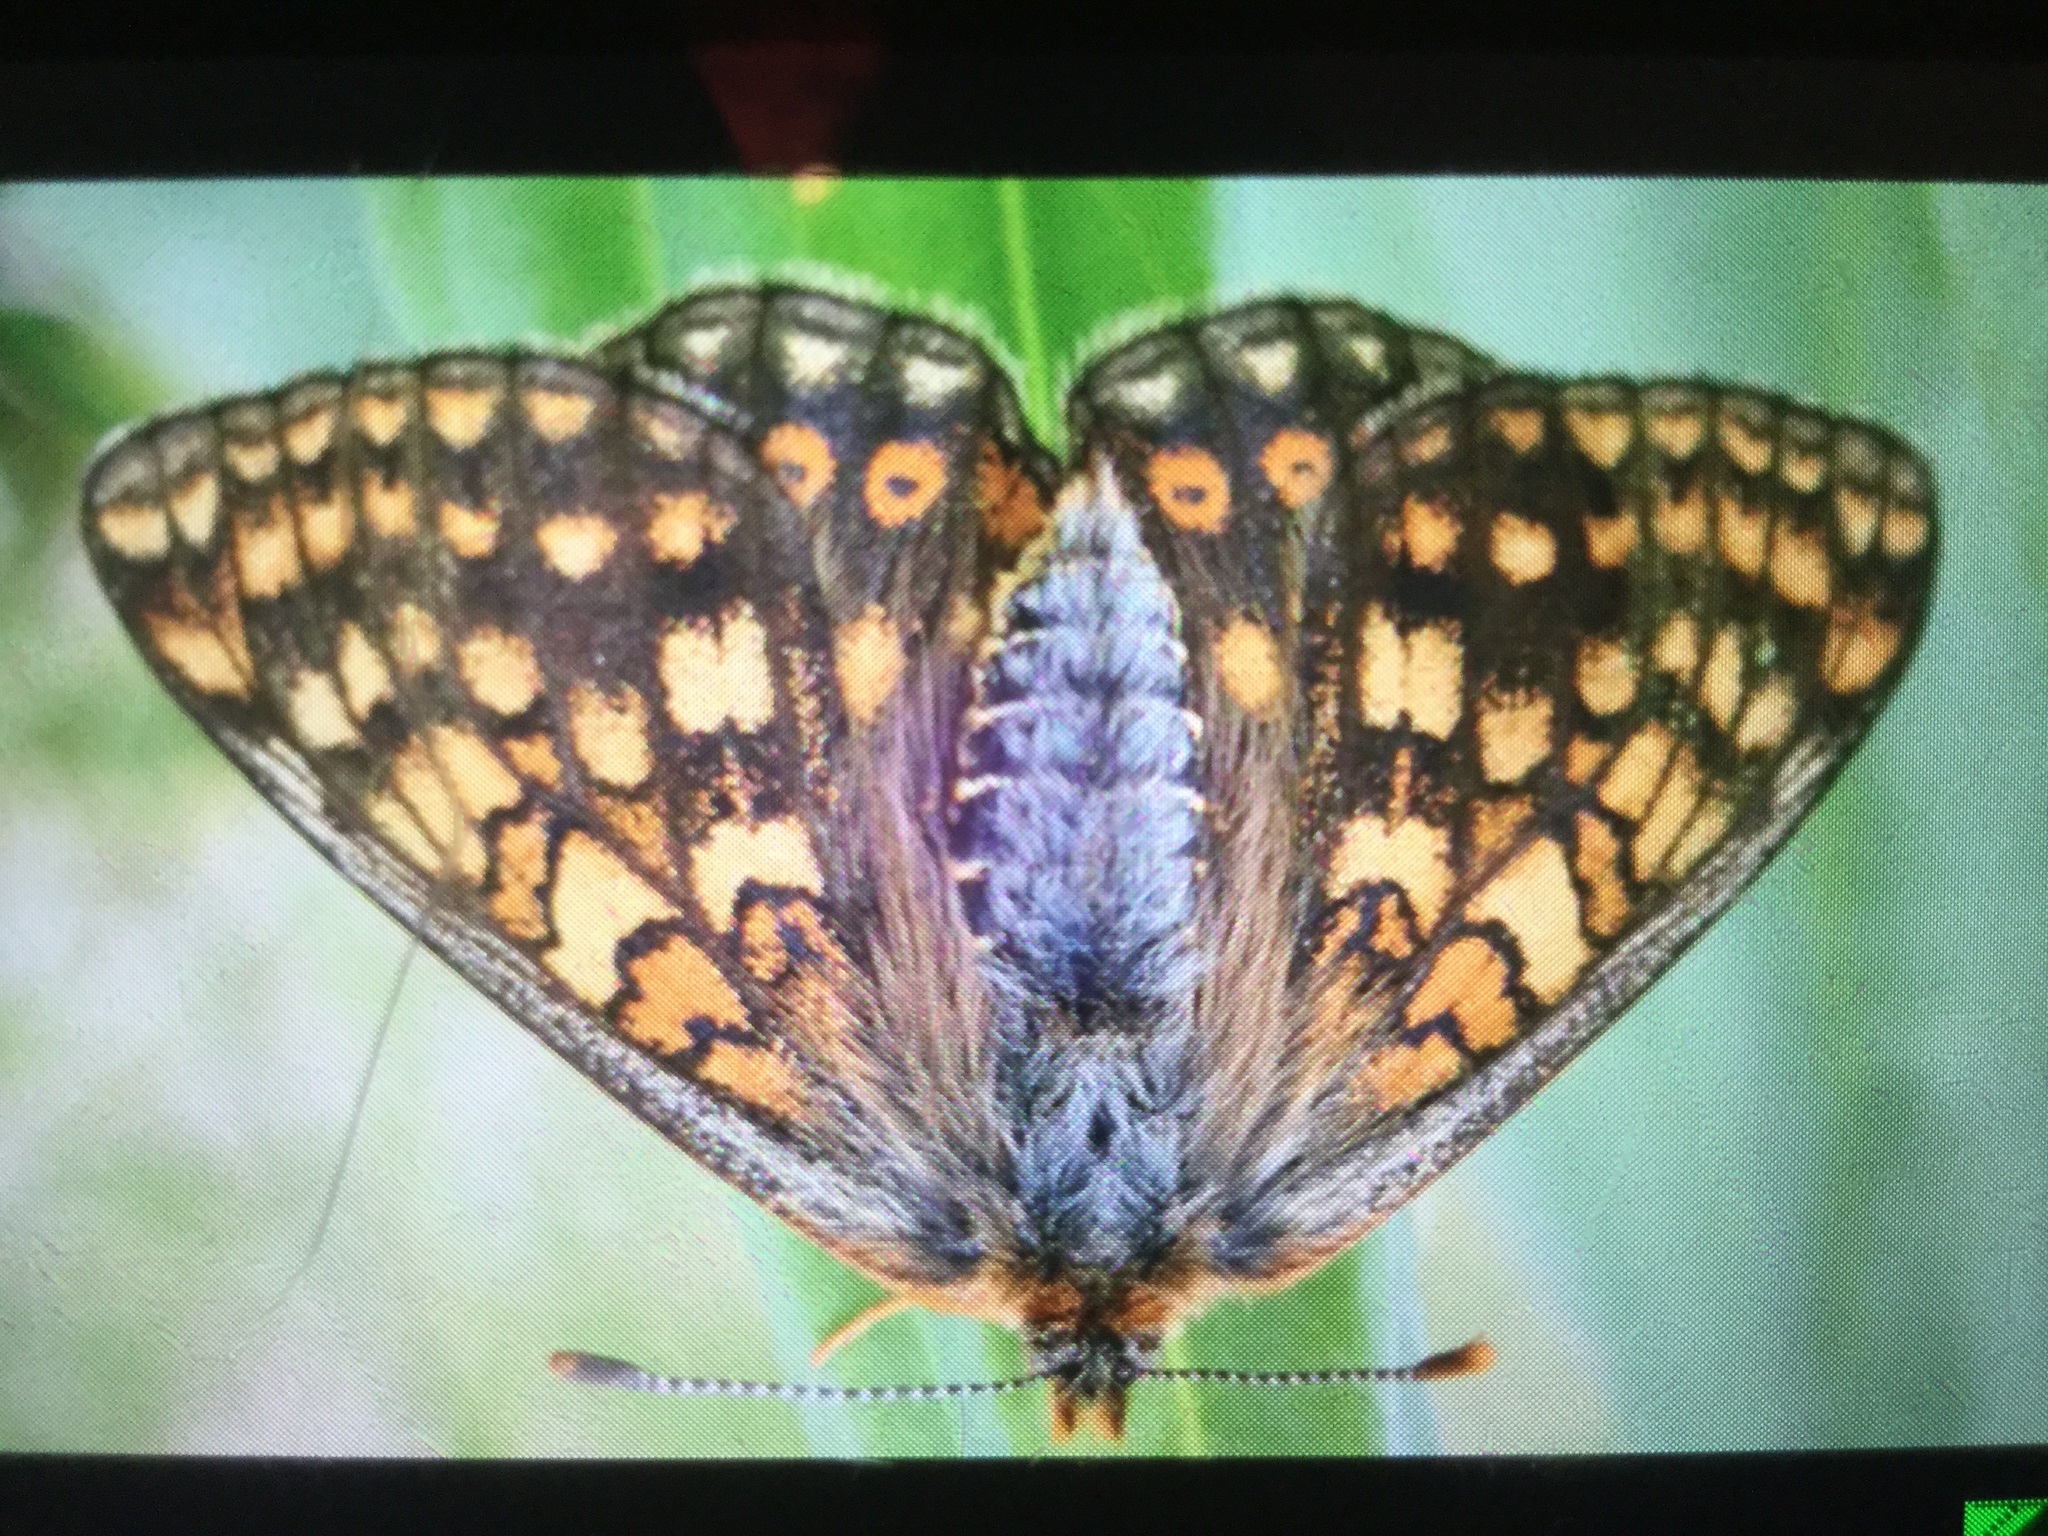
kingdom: Animalia
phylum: Arthropoda
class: Insecta
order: Lepidoptera
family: Nymphalidae
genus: Euphydryas
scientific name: Euphydryas aurinia
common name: Marsh fritillary
